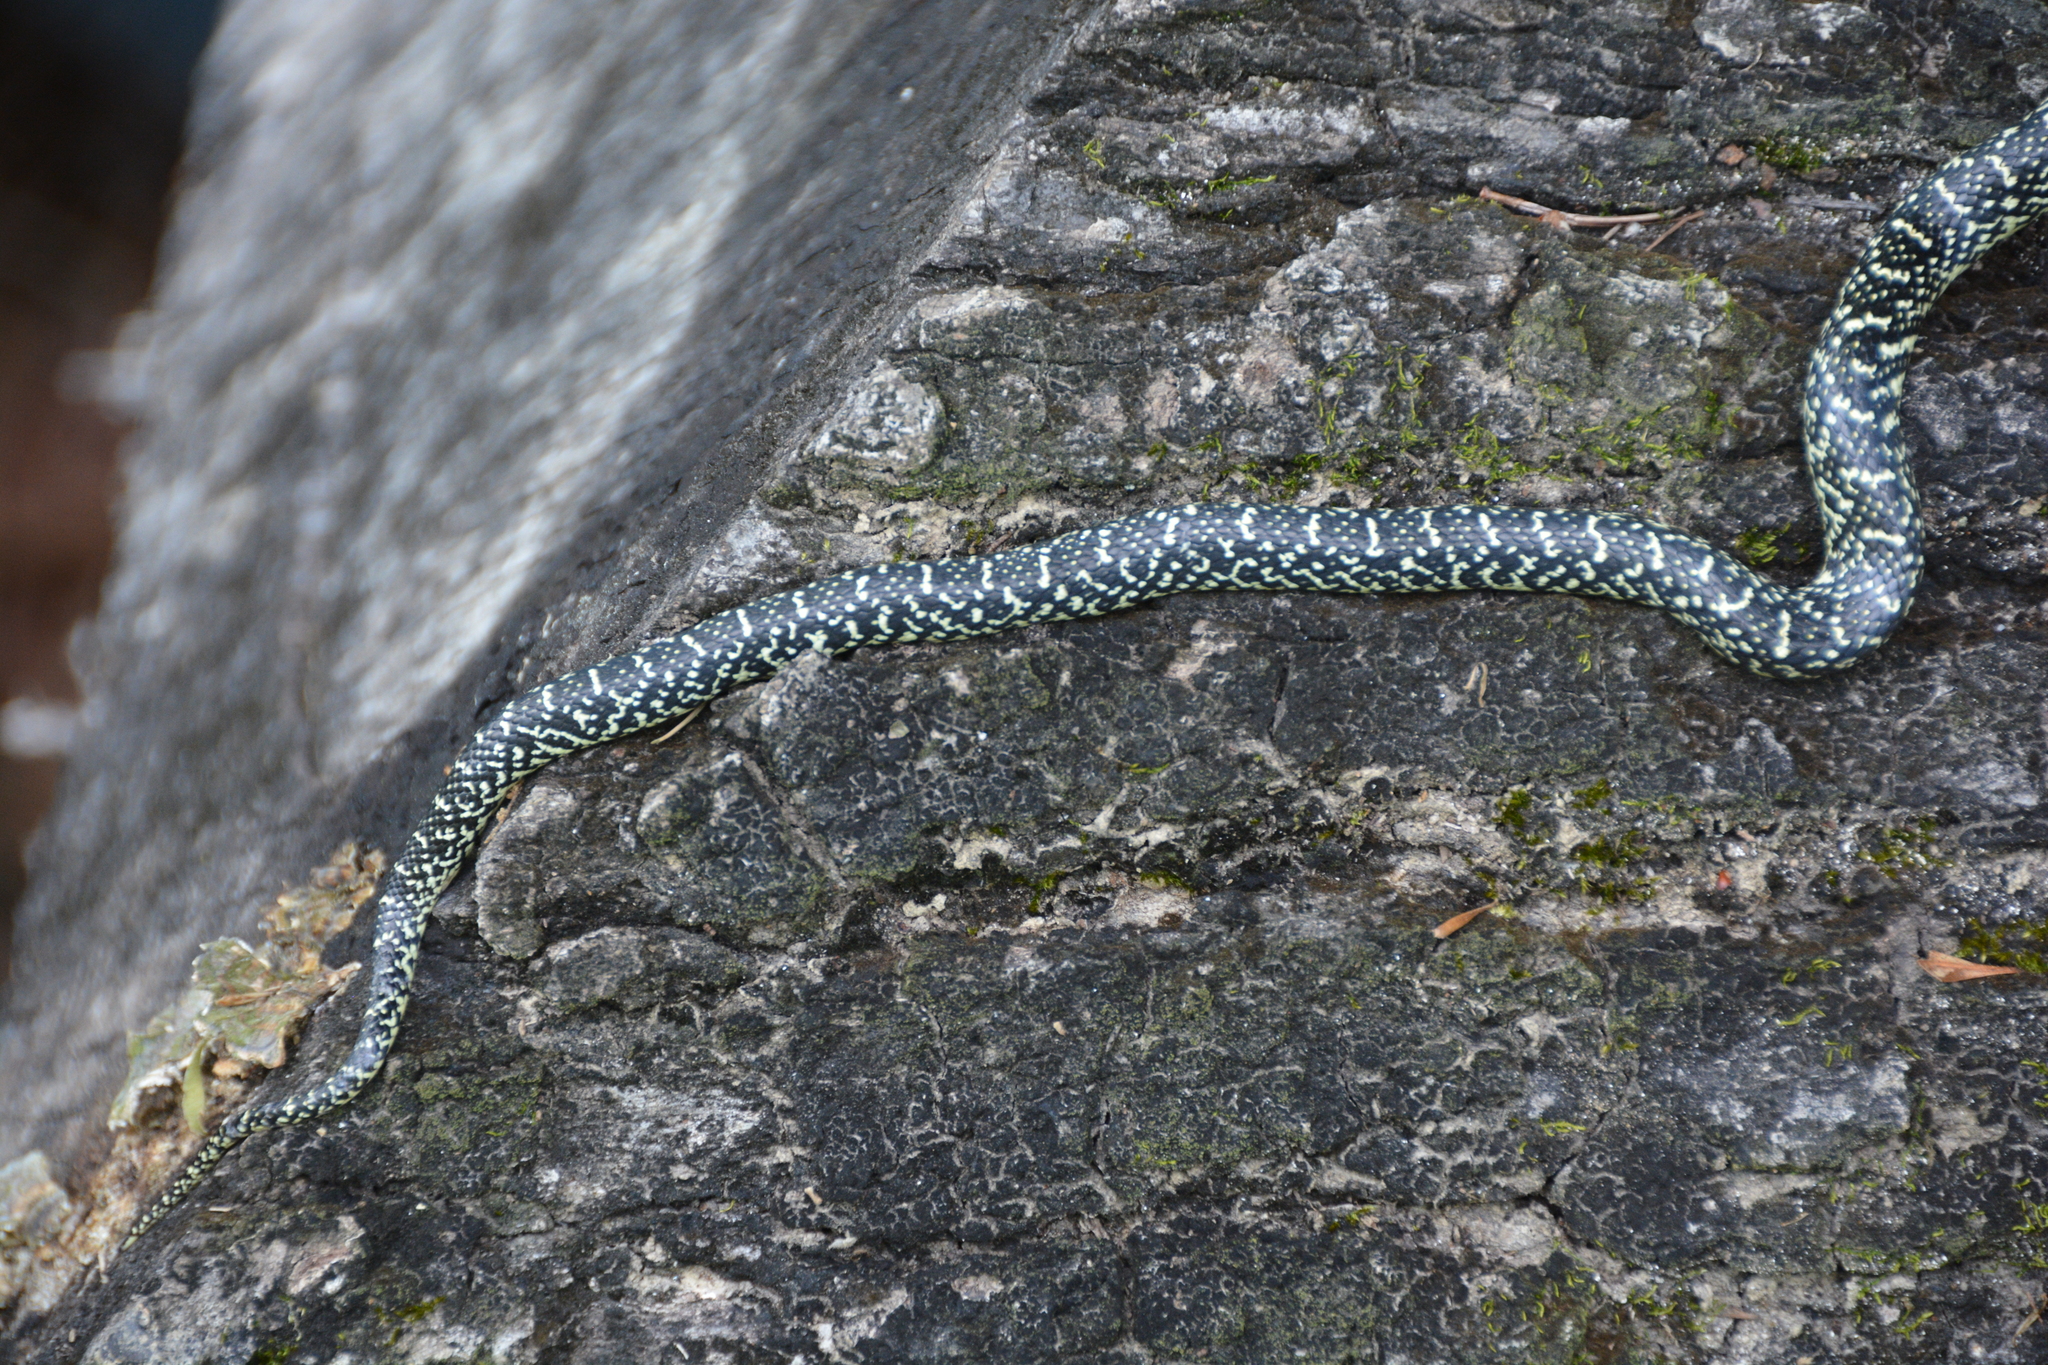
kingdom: Animalia
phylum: Chordata
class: Squamata
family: Colubridae
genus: Lampropeltis
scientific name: Lampropeltis holbrooki
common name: Speckled kingsnake
